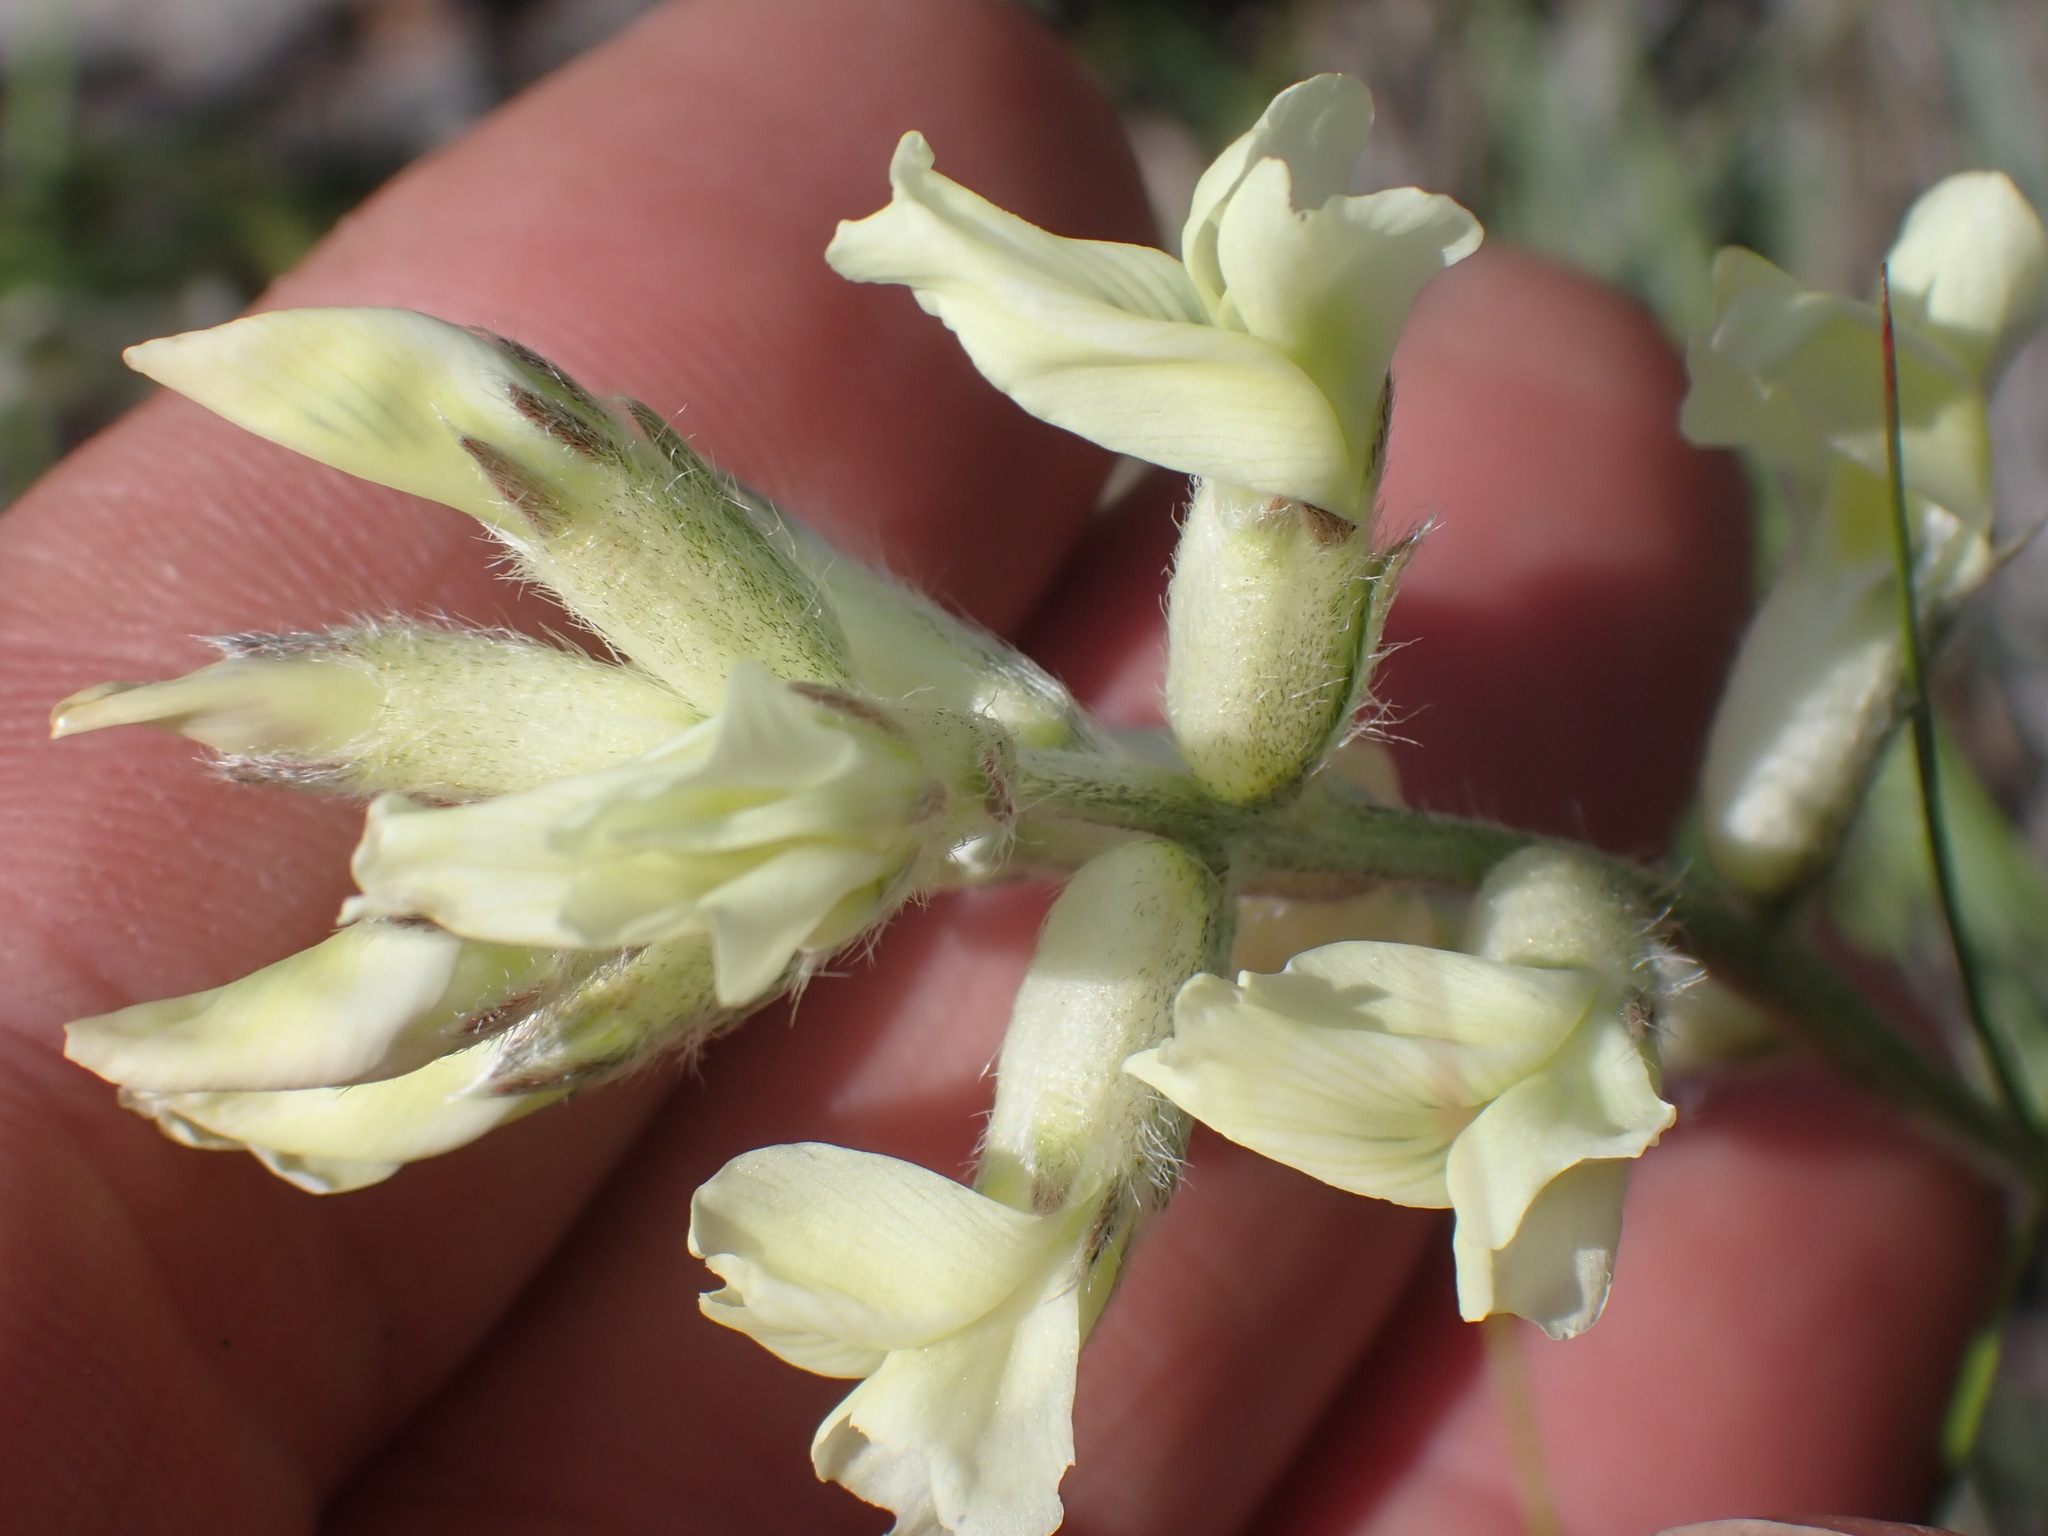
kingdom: Plantae
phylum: Tracheophyta
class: Magnoliopsida
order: Fabales
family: Fabaceae
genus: Oxytropis
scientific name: Oxytropis sericea
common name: Silky locoweed
